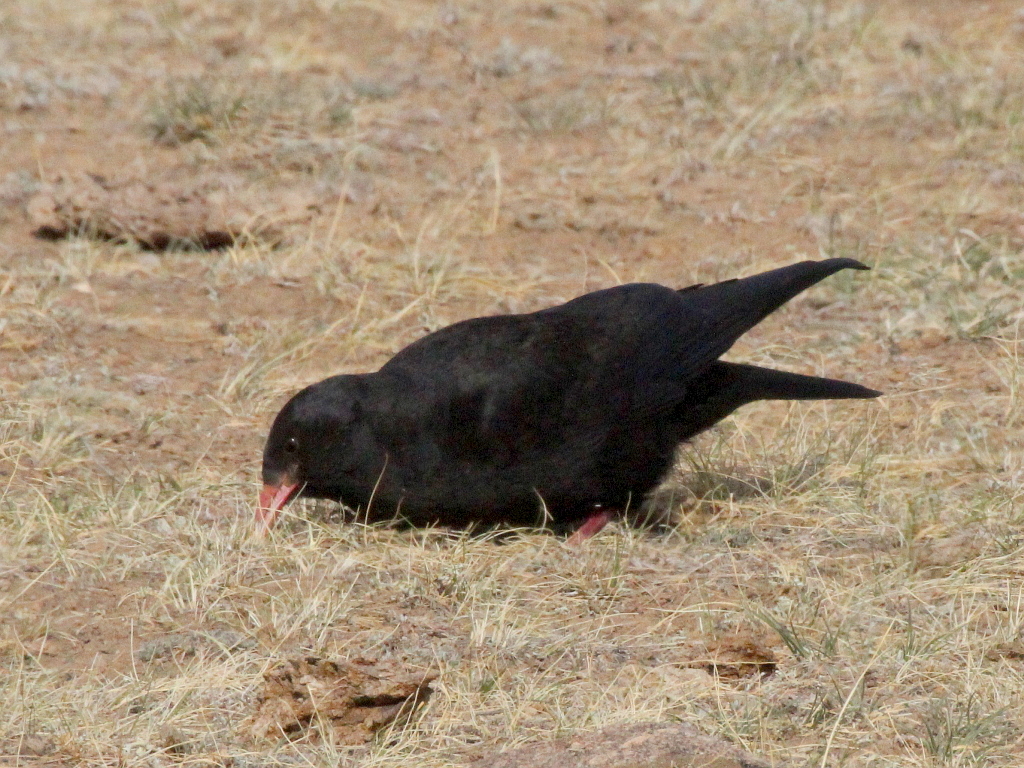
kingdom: Animalia
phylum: Chordata
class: Aves
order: Passeriformes
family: Corvidae
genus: Pyrrhocorax
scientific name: Pyrrhocorax pyrrhocorax
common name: Red-billed chough
